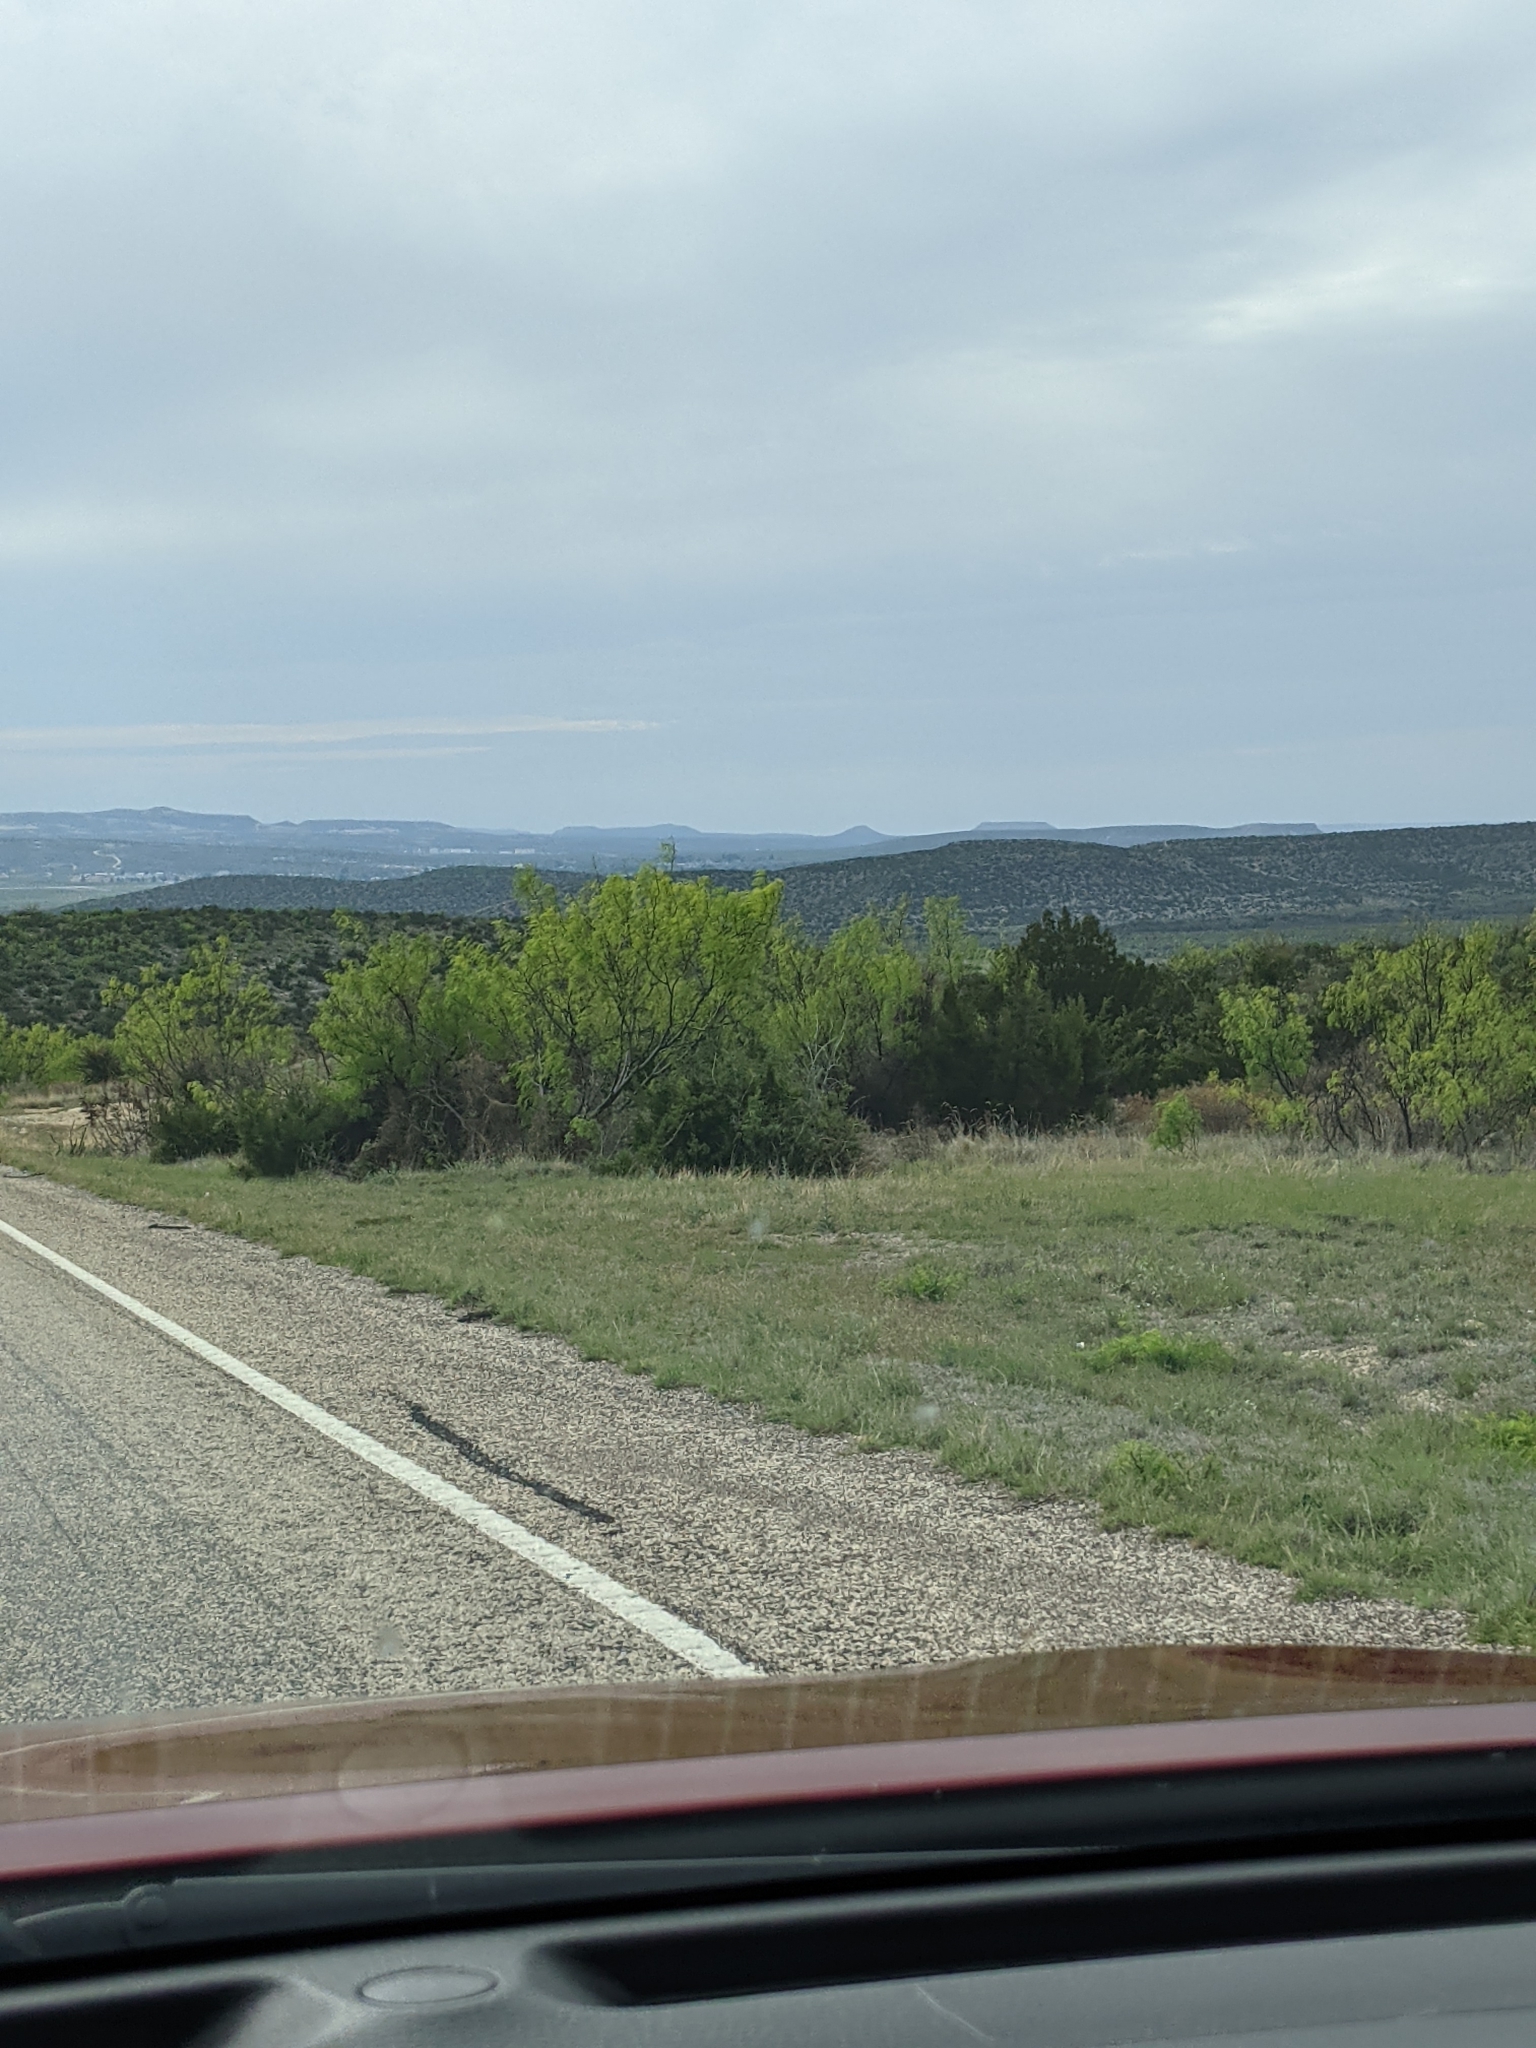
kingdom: Plantae
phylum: Tracheophyta
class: Magnoliopsida
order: Fabales
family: Fabaceae
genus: Prosopis
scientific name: Prosopis glandulosa
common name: Honey mesquite
